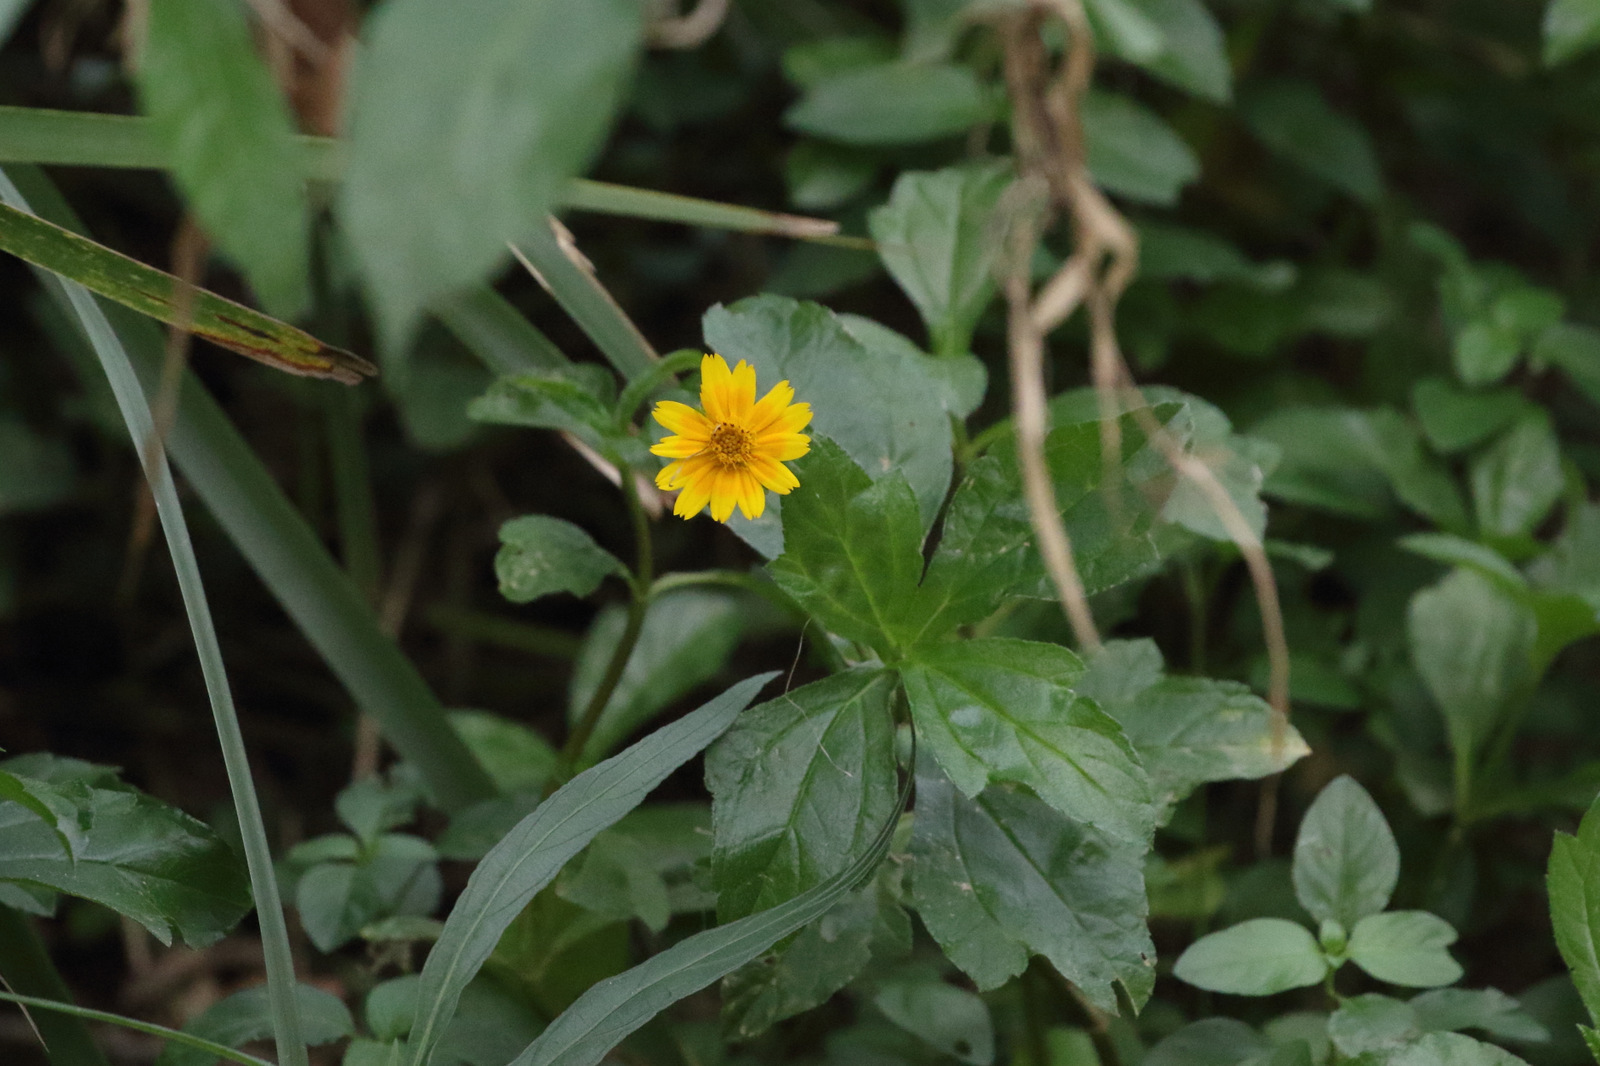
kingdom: Plantae
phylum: Tracheophyta
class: Magnoliopsida
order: Asterales
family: Asteraceae
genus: Sphagneticola
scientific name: Sphagneticola trilobata
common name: Bay biscayne creeping-oxeye
